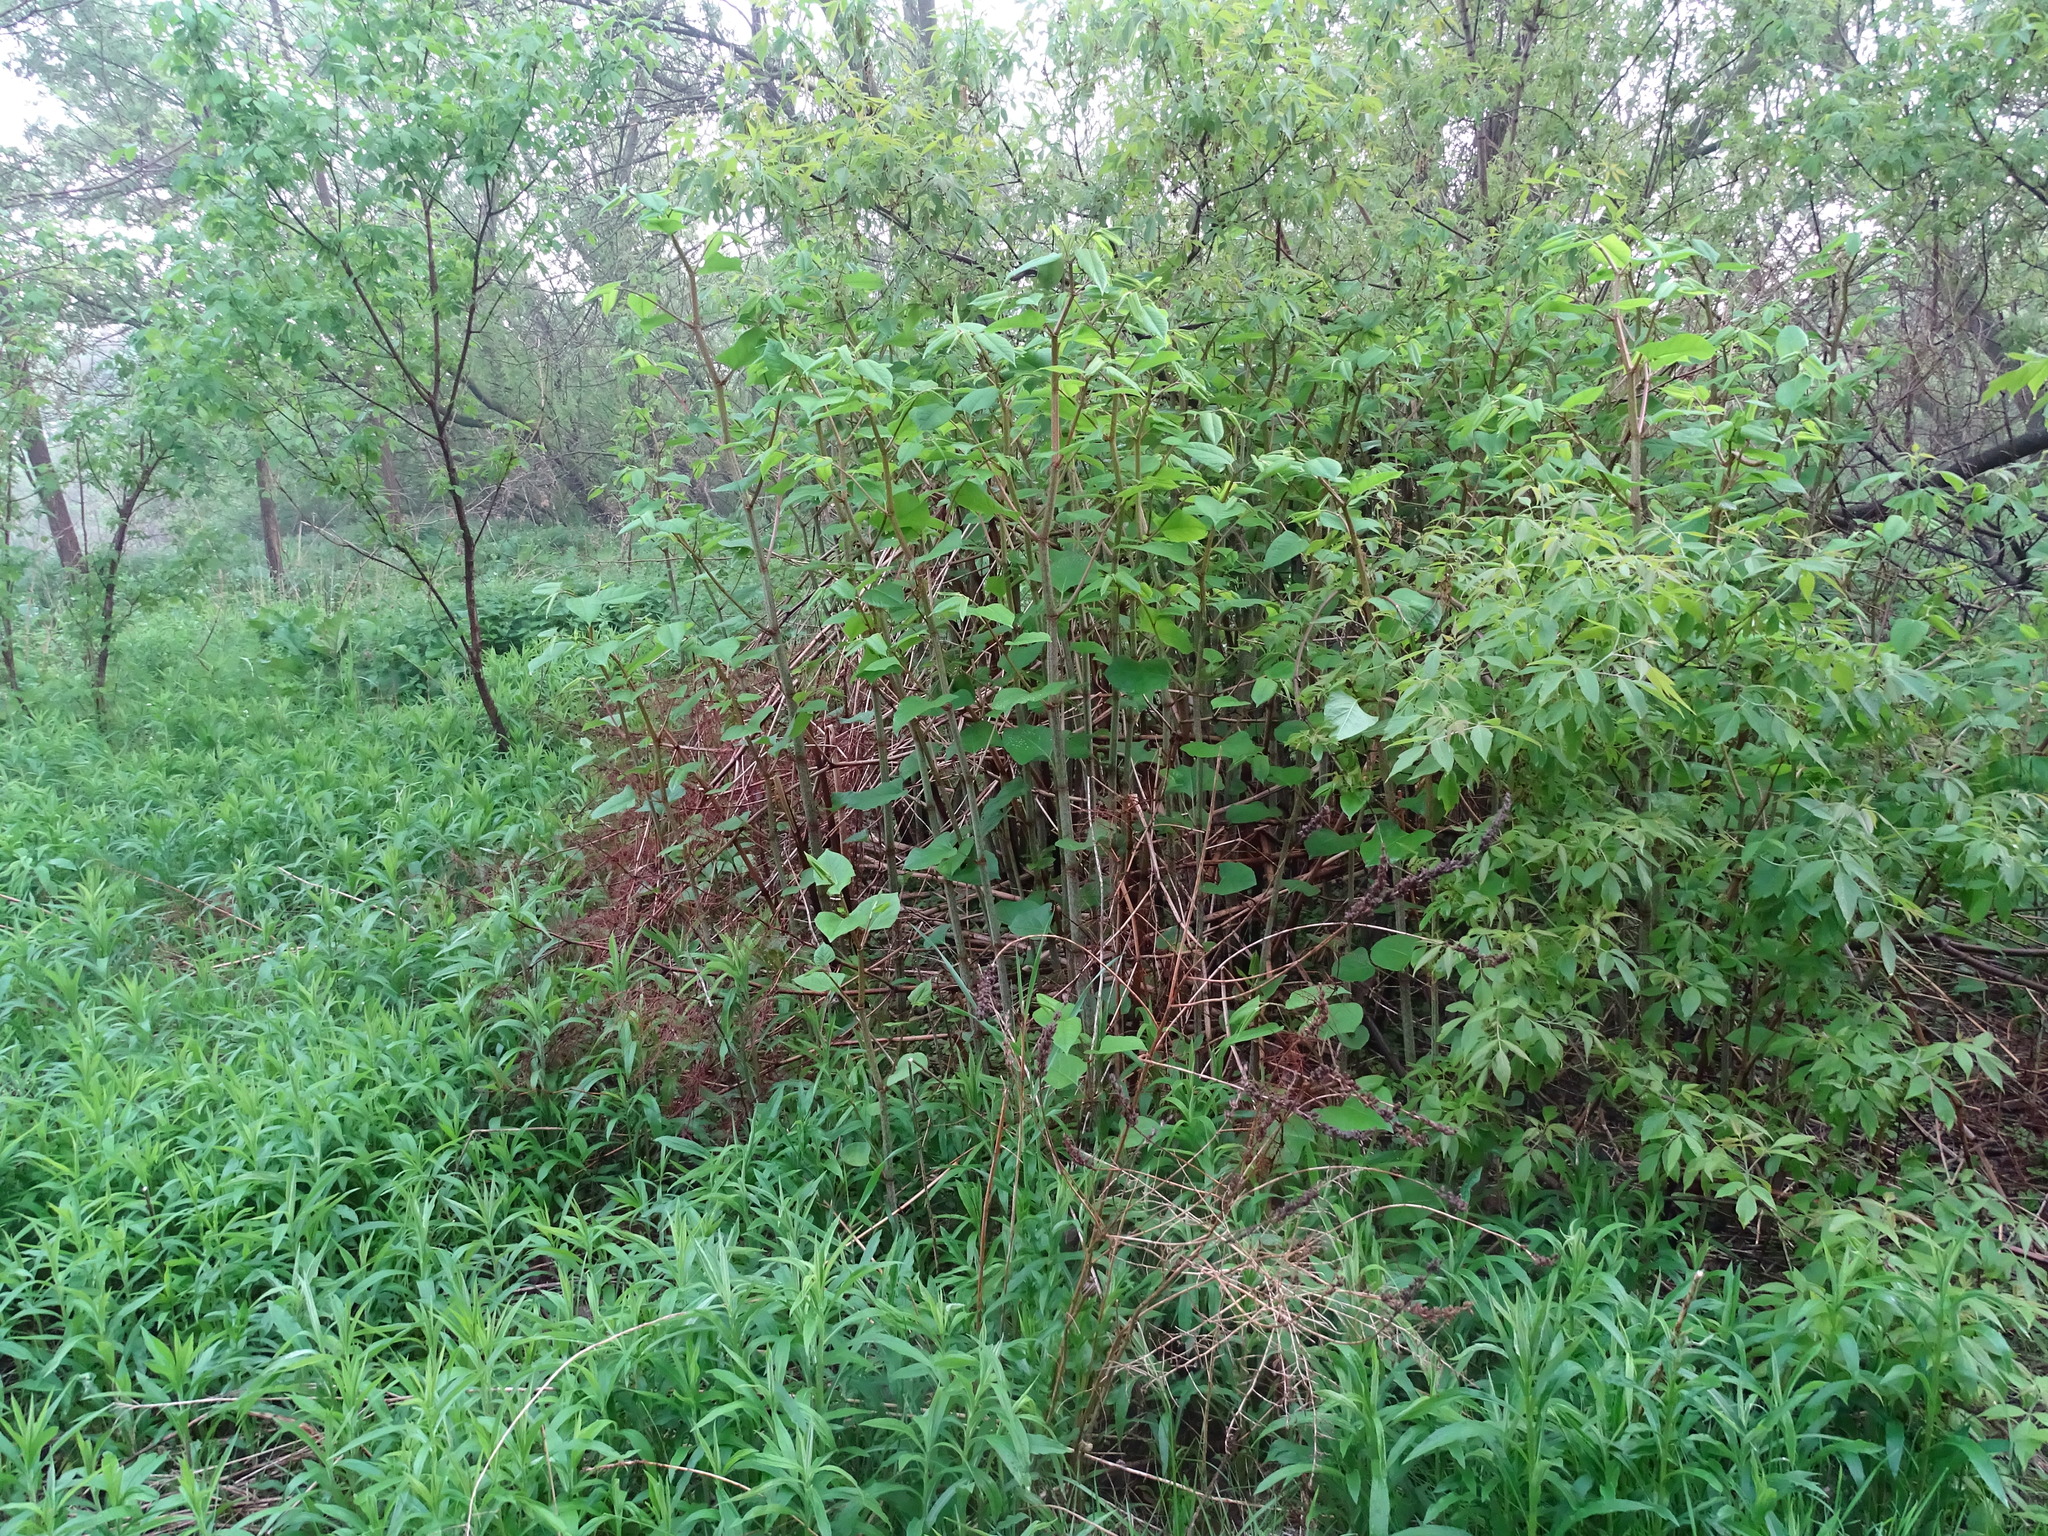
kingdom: Plantae
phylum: Tracheophyta
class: Magnoliopsida
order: Caryophyllales
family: Polygonaceae
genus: Reynoutria
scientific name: Reynoutria japonica
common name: Japanese knotweed
